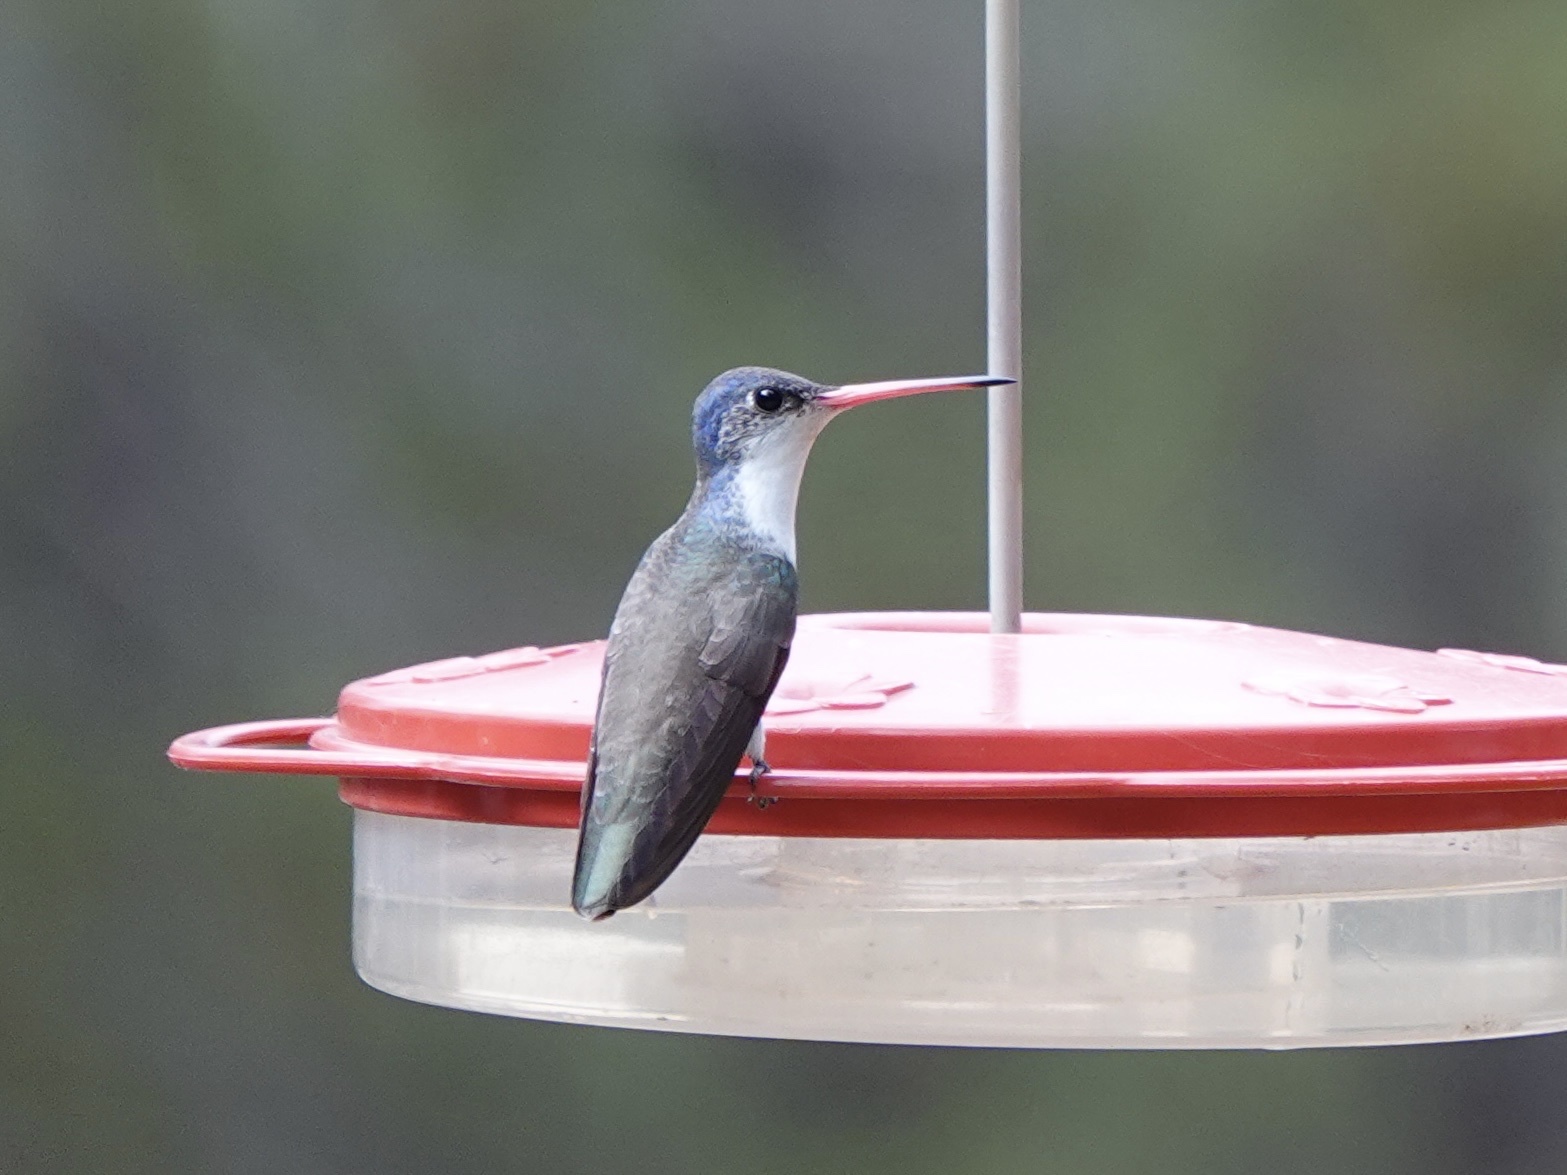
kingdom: Animalia
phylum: Chordata
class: Aves
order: Apodiformes
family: Trochilidae
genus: Leucolia
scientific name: Leucolia violiceps
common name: Violet-crowned hummingbird
